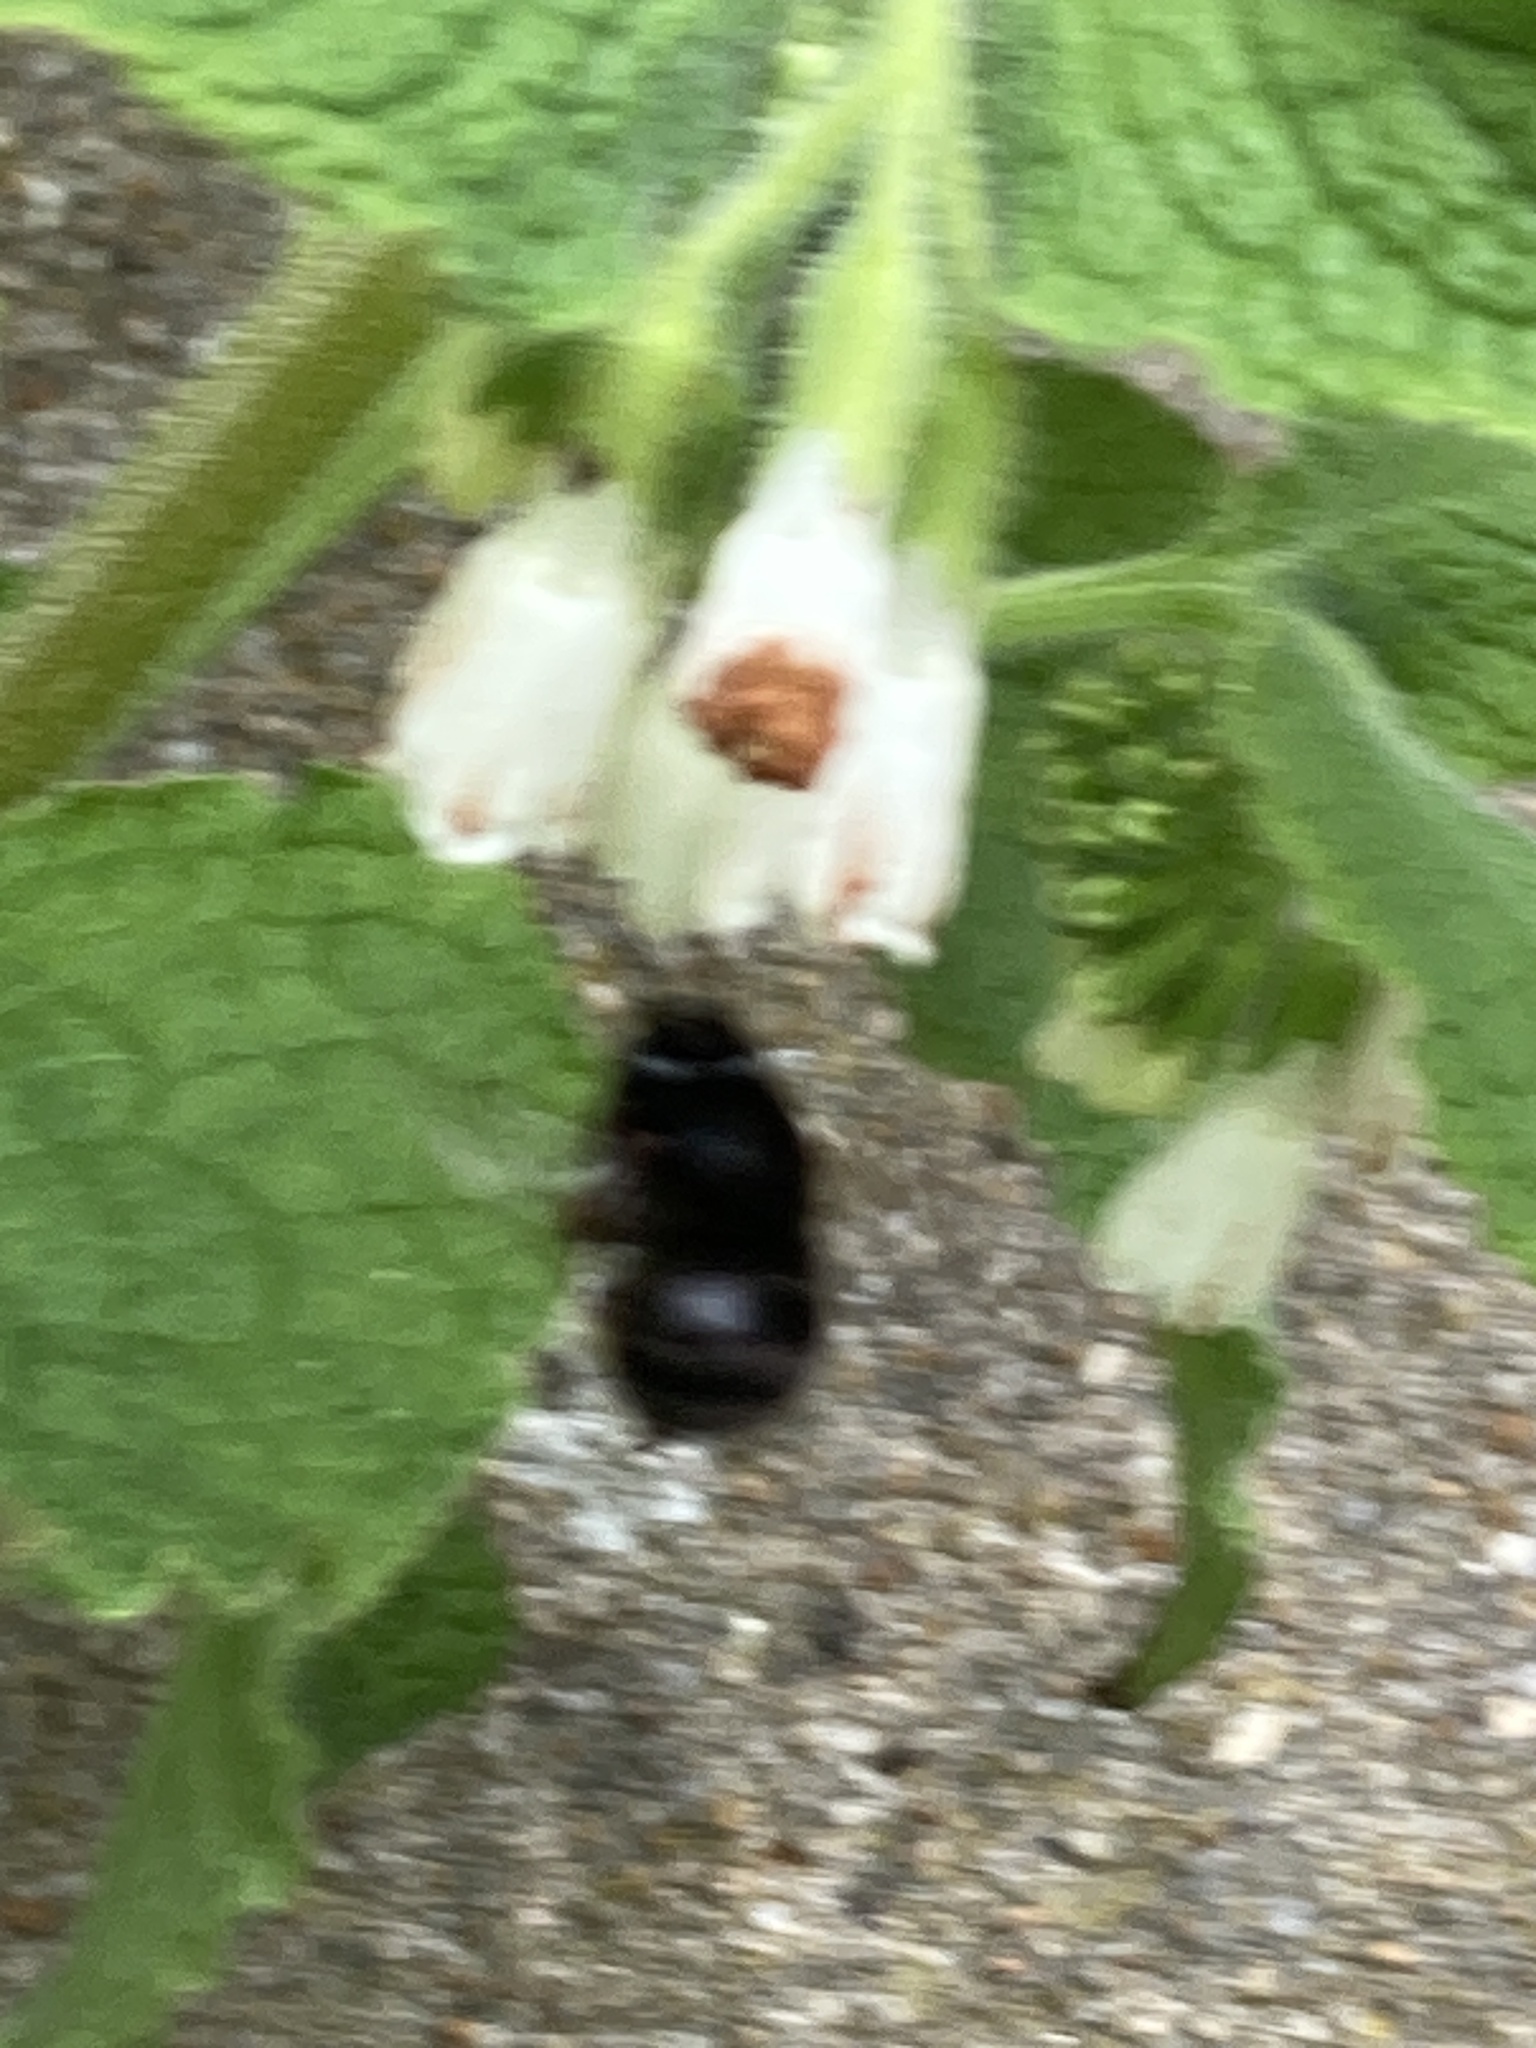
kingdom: Animalia
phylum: Arthropoda
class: Insecta
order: Hymenoptera
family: Apidae
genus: Anthophora
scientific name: Anthophora plumipes
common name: Hairy-footed flower bee
